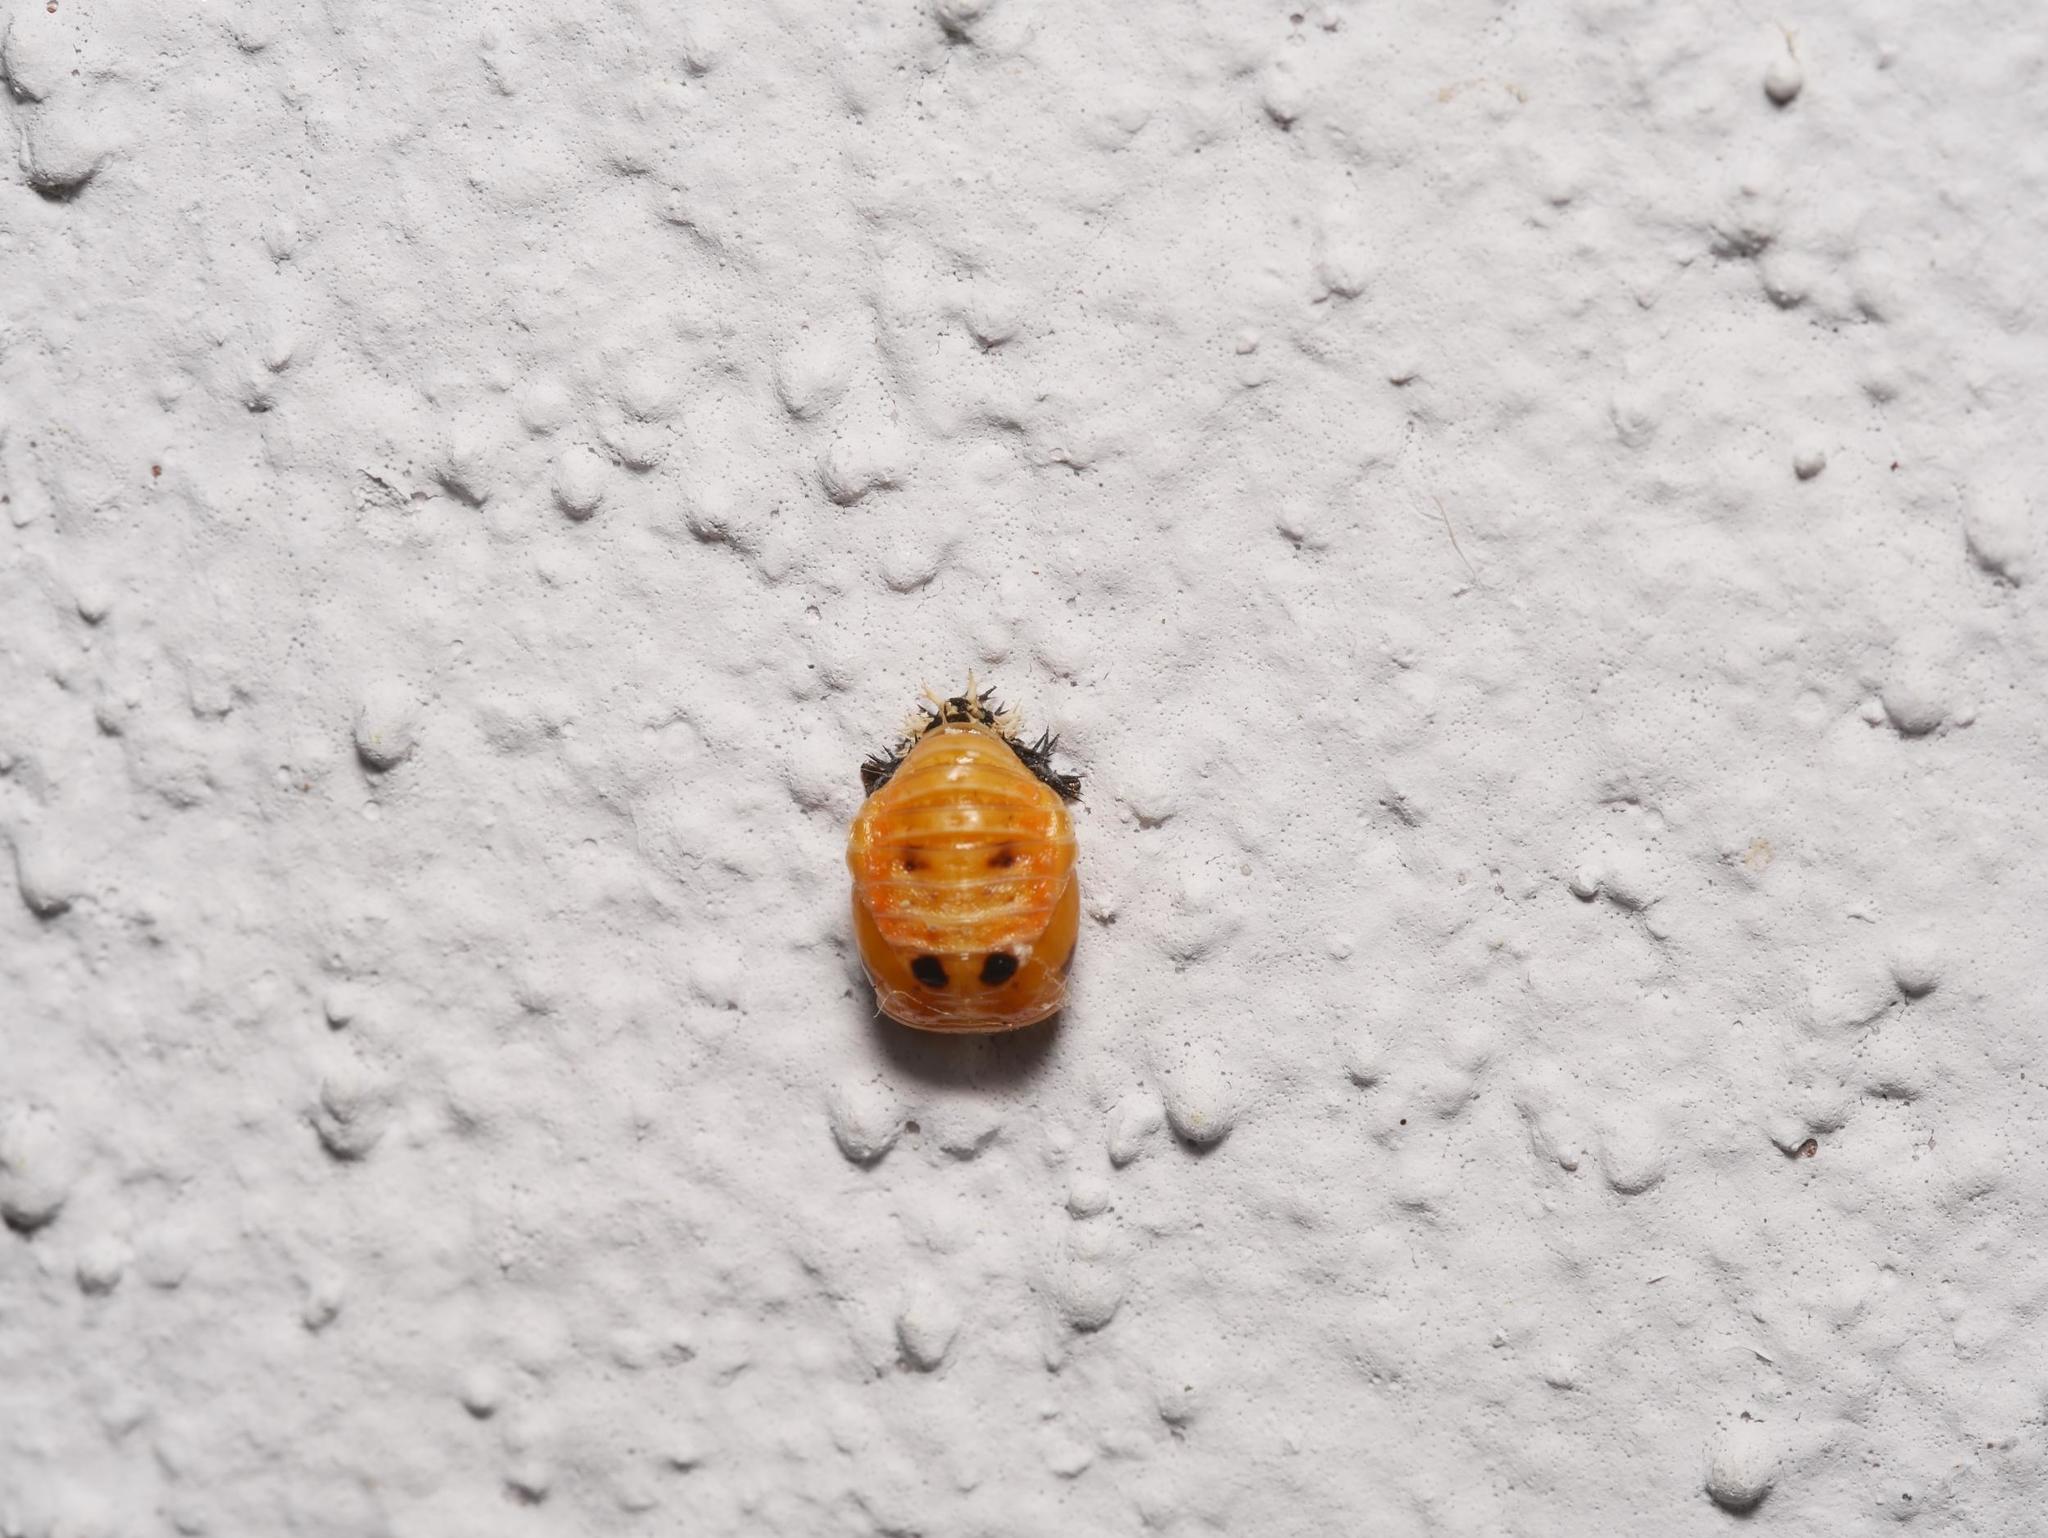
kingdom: Animalia
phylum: Arthropoda
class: Insecta
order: Coleoptera
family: Coccinellidae
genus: Harmonia
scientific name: Harmonia axyridis
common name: Harlequin ladybird
